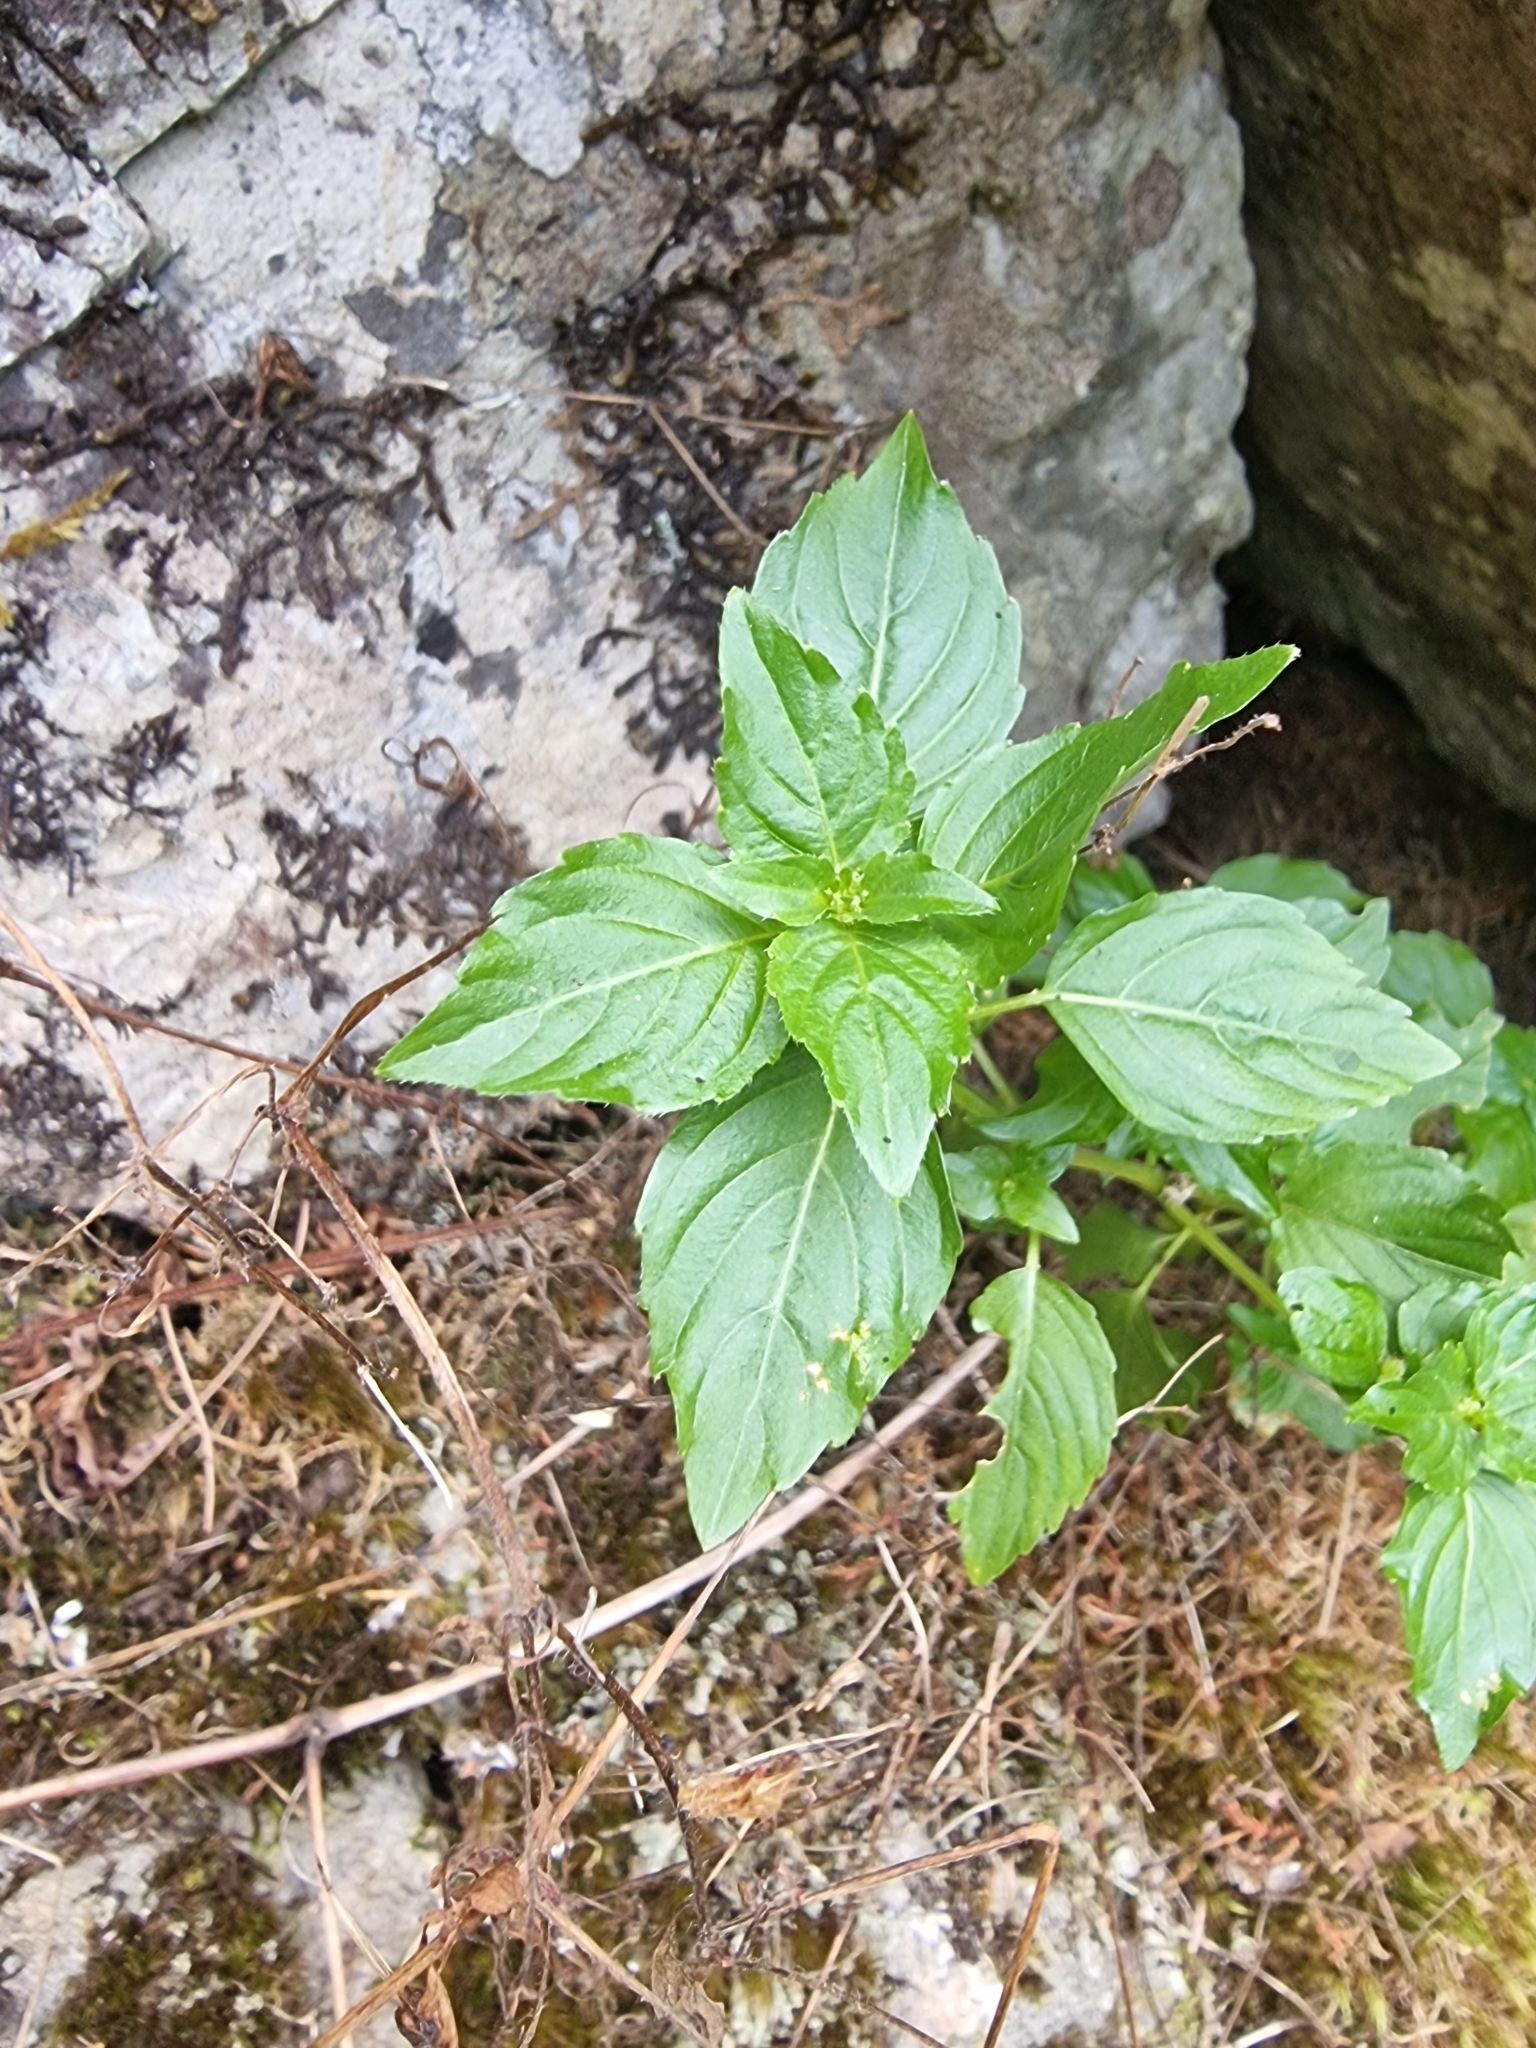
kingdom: Plantae
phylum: Tracheophyta
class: Magnoliopsida
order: Malpighiales
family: Euphorbiaceae
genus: Mercurialis
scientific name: Mercurialis annua
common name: Annual mercury
